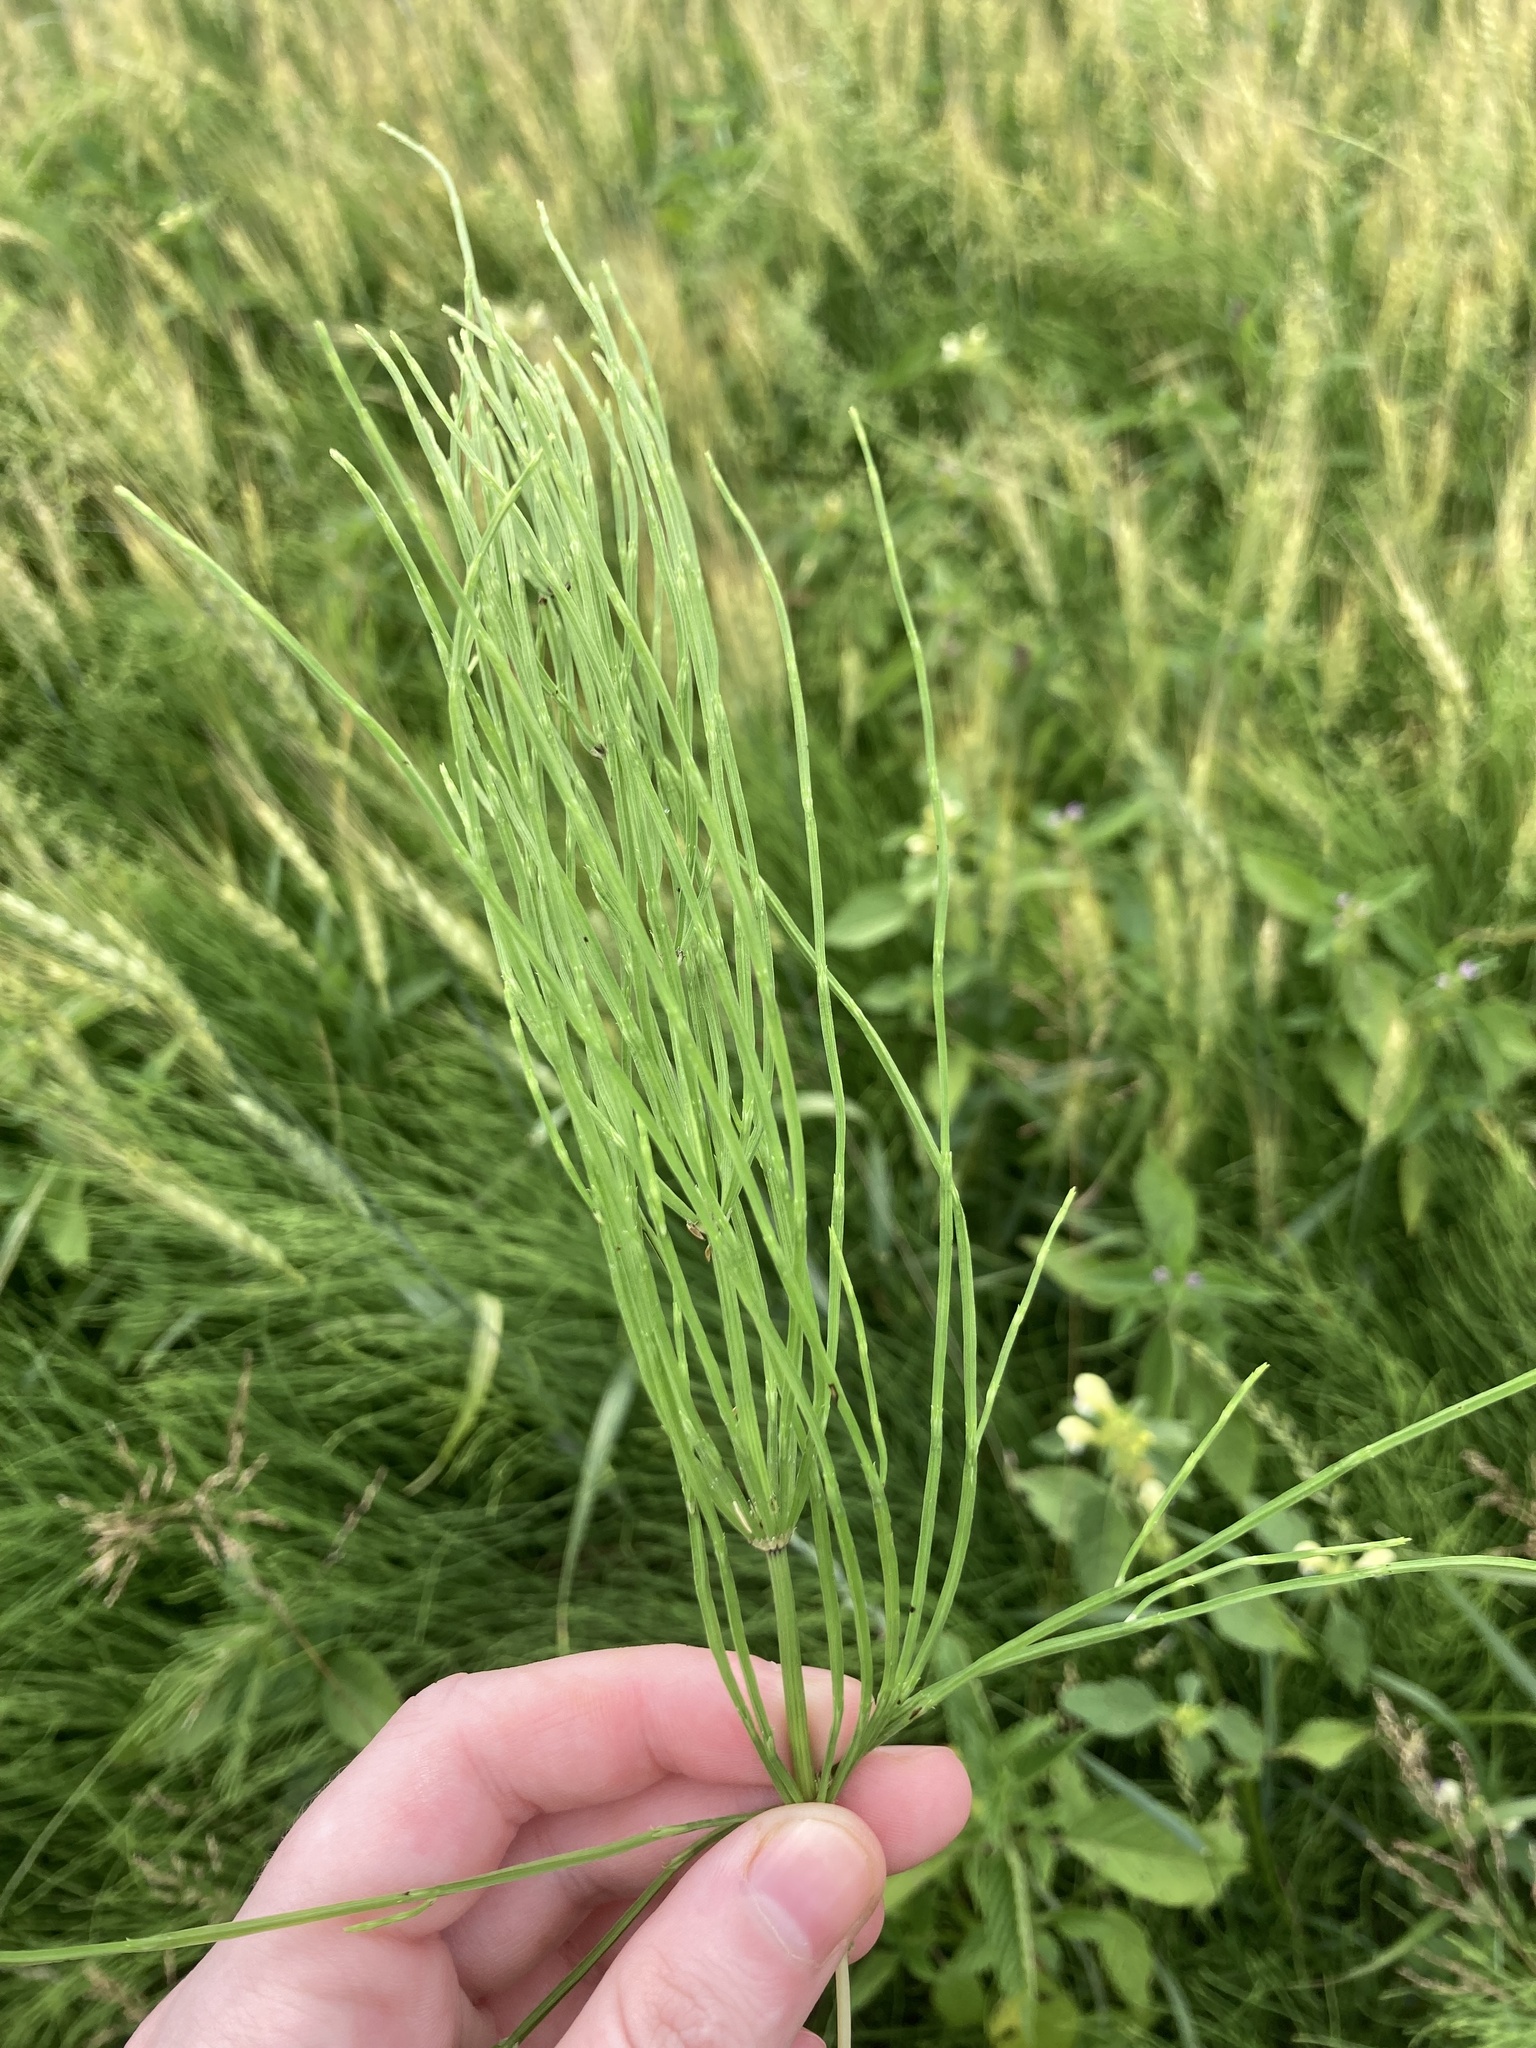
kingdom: Plantae
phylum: Tracheophyta
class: Polypodiopsida
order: Equisetales
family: Equisetaceae
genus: Equisetum
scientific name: Equisetum arvense
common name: Field horsetail
